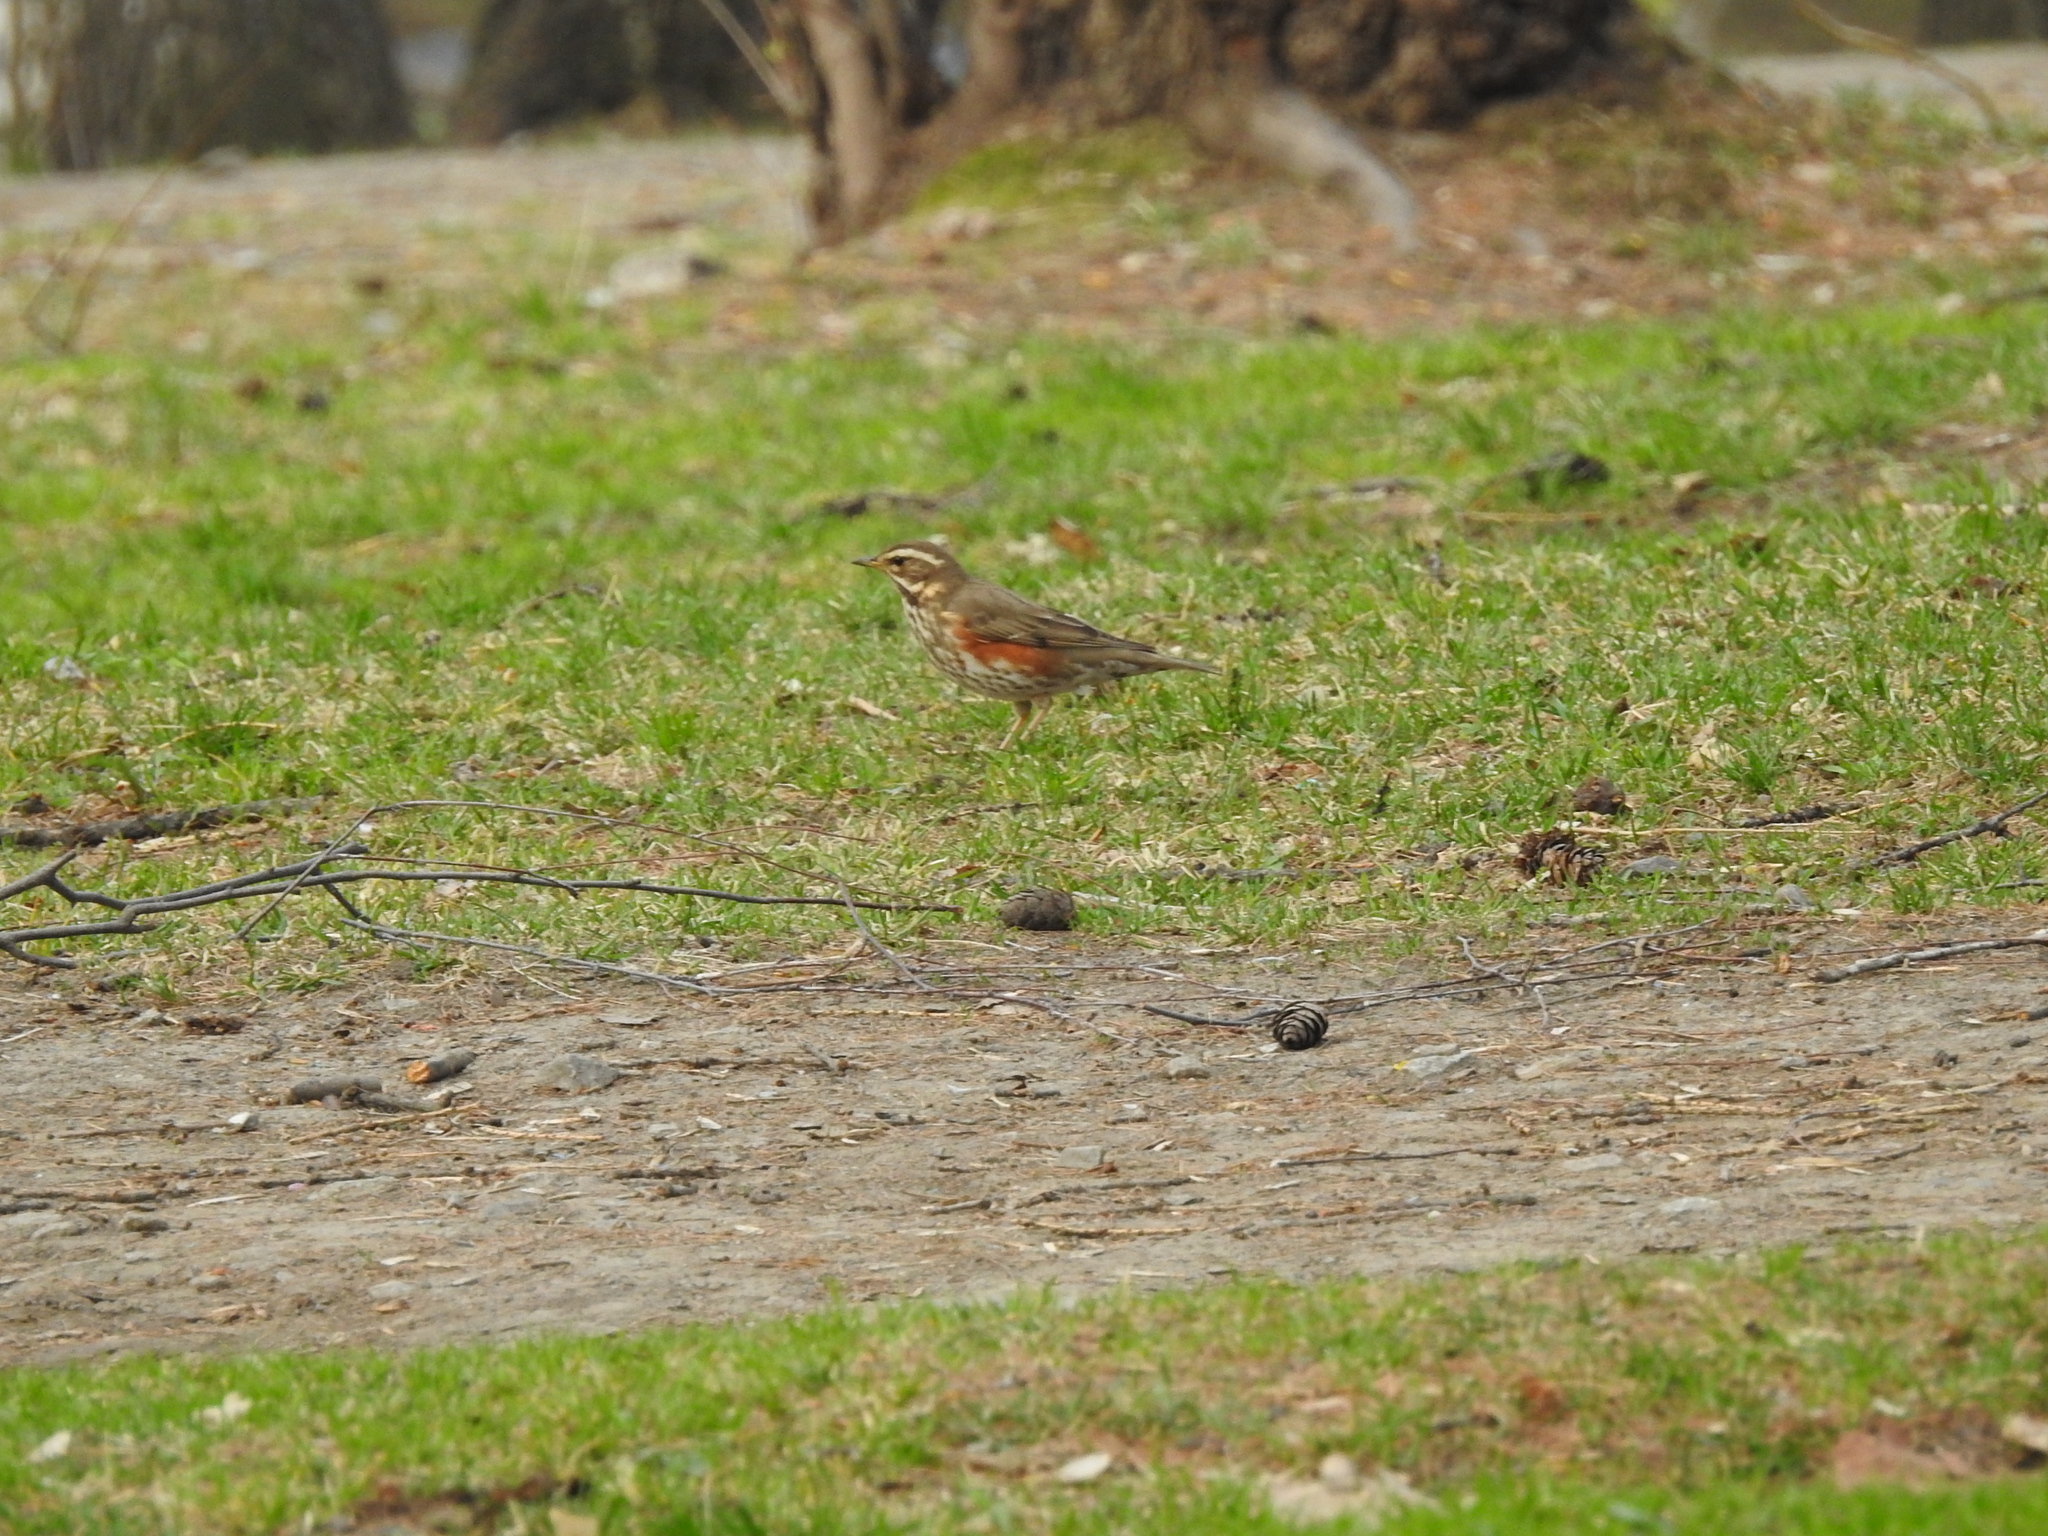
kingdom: Animalia
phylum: Chordata
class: Aves
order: Passeriformes
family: Turdidae
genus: Turdus
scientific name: Turdus iliacus
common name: Redwing
